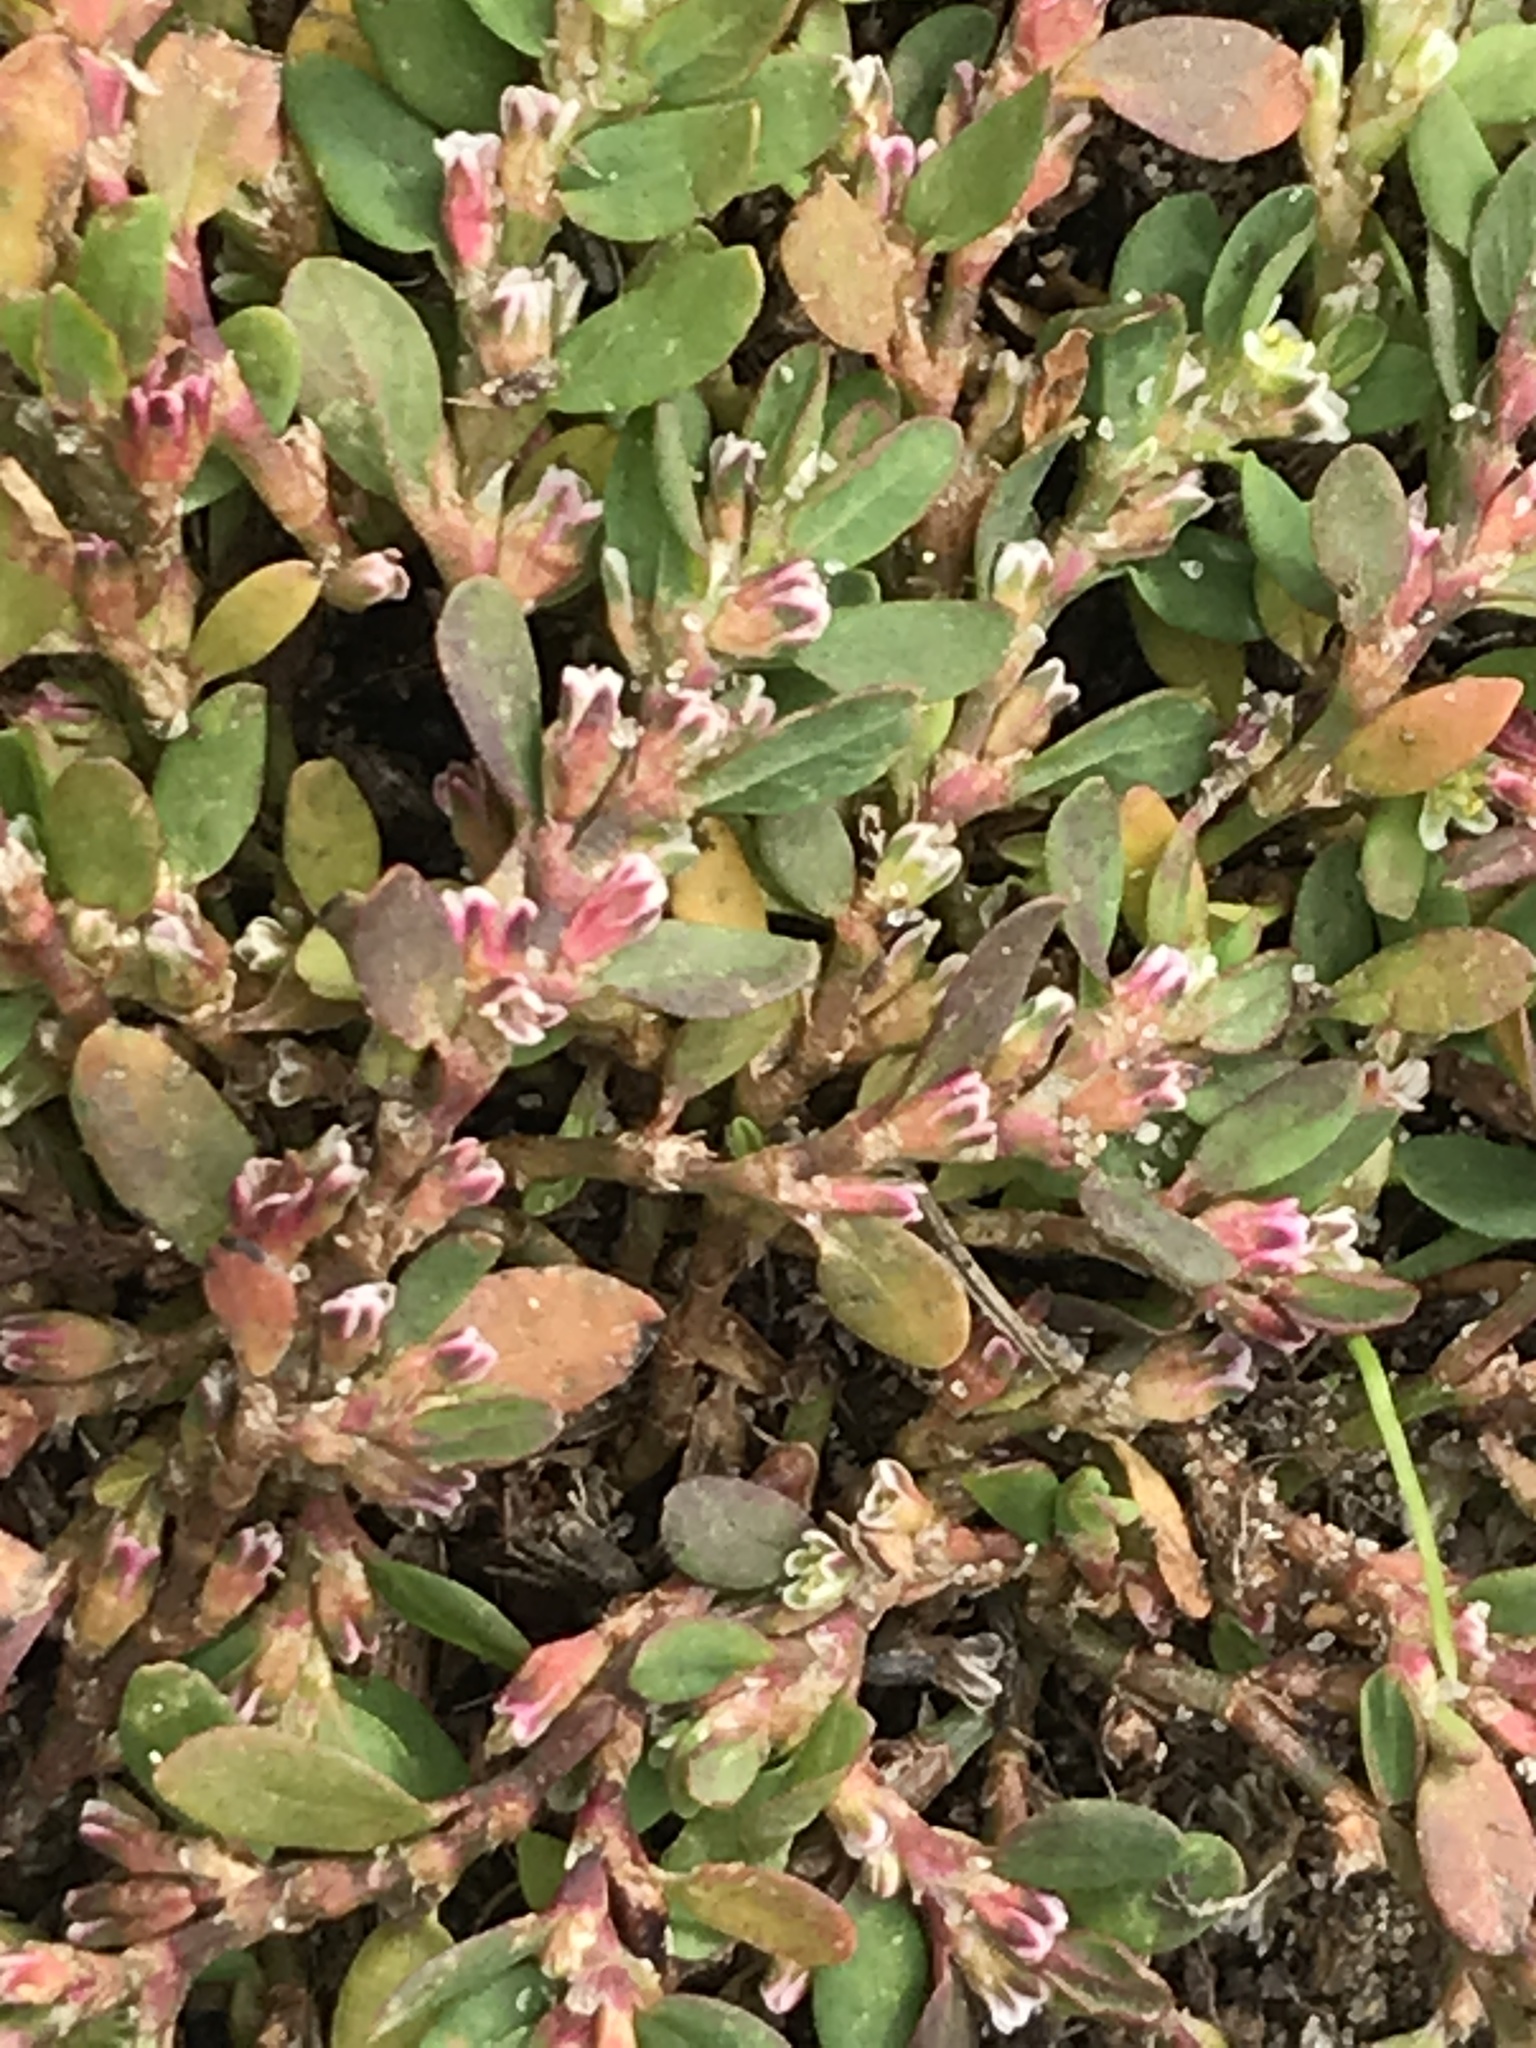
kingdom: Plantae
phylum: Tracheophyta
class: Magnoliopsida
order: Caryophyllales
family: Polygonaceae
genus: Polygonum
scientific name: Polygonum aviculare
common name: Prostrate knotweed
